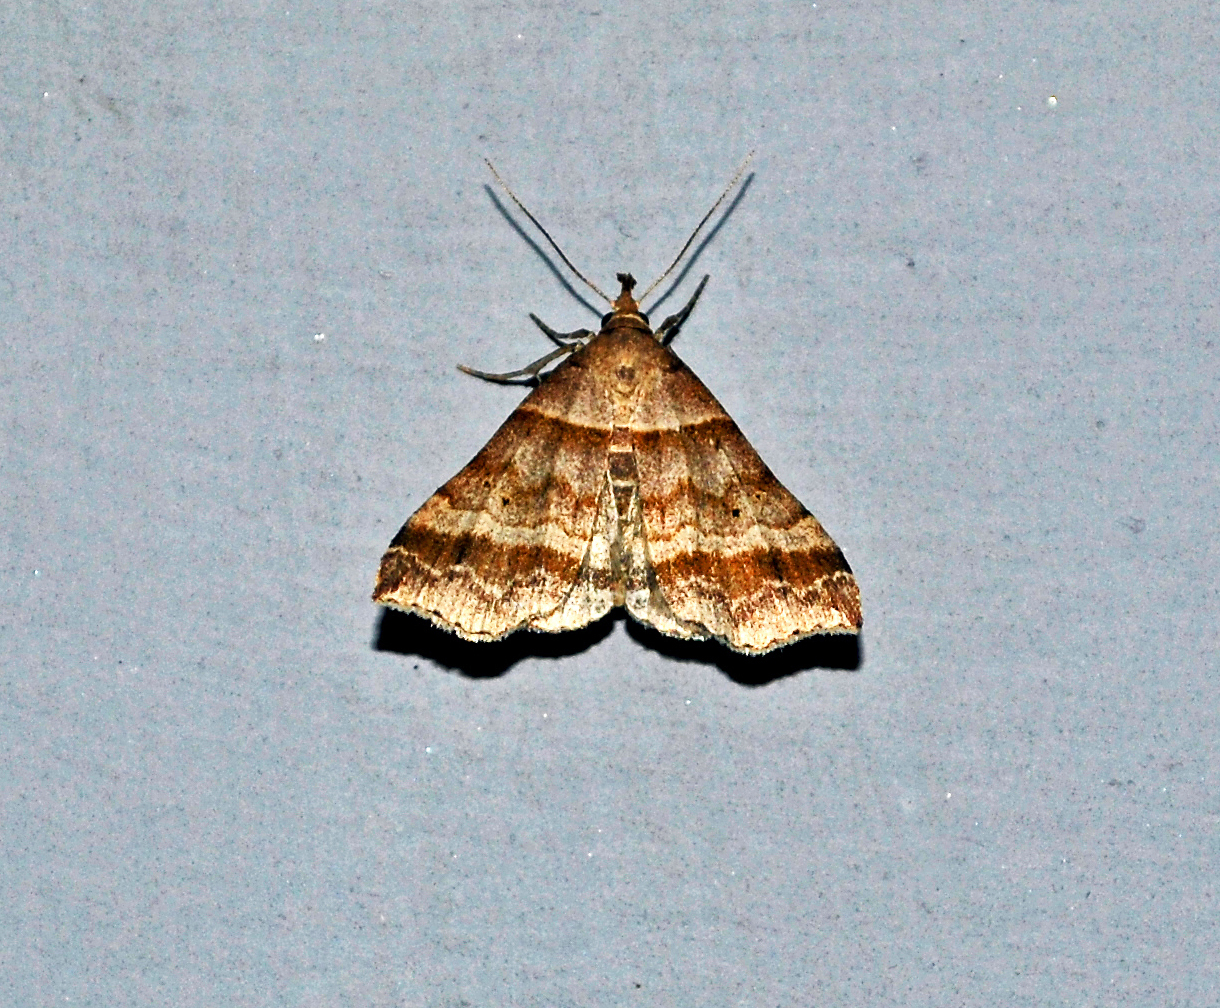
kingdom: Animalia
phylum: Arthropoda
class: Insecta
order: Lepidoptera
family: Erebidae
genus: Phaeolita
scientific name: Phaeolita pyramusalis
